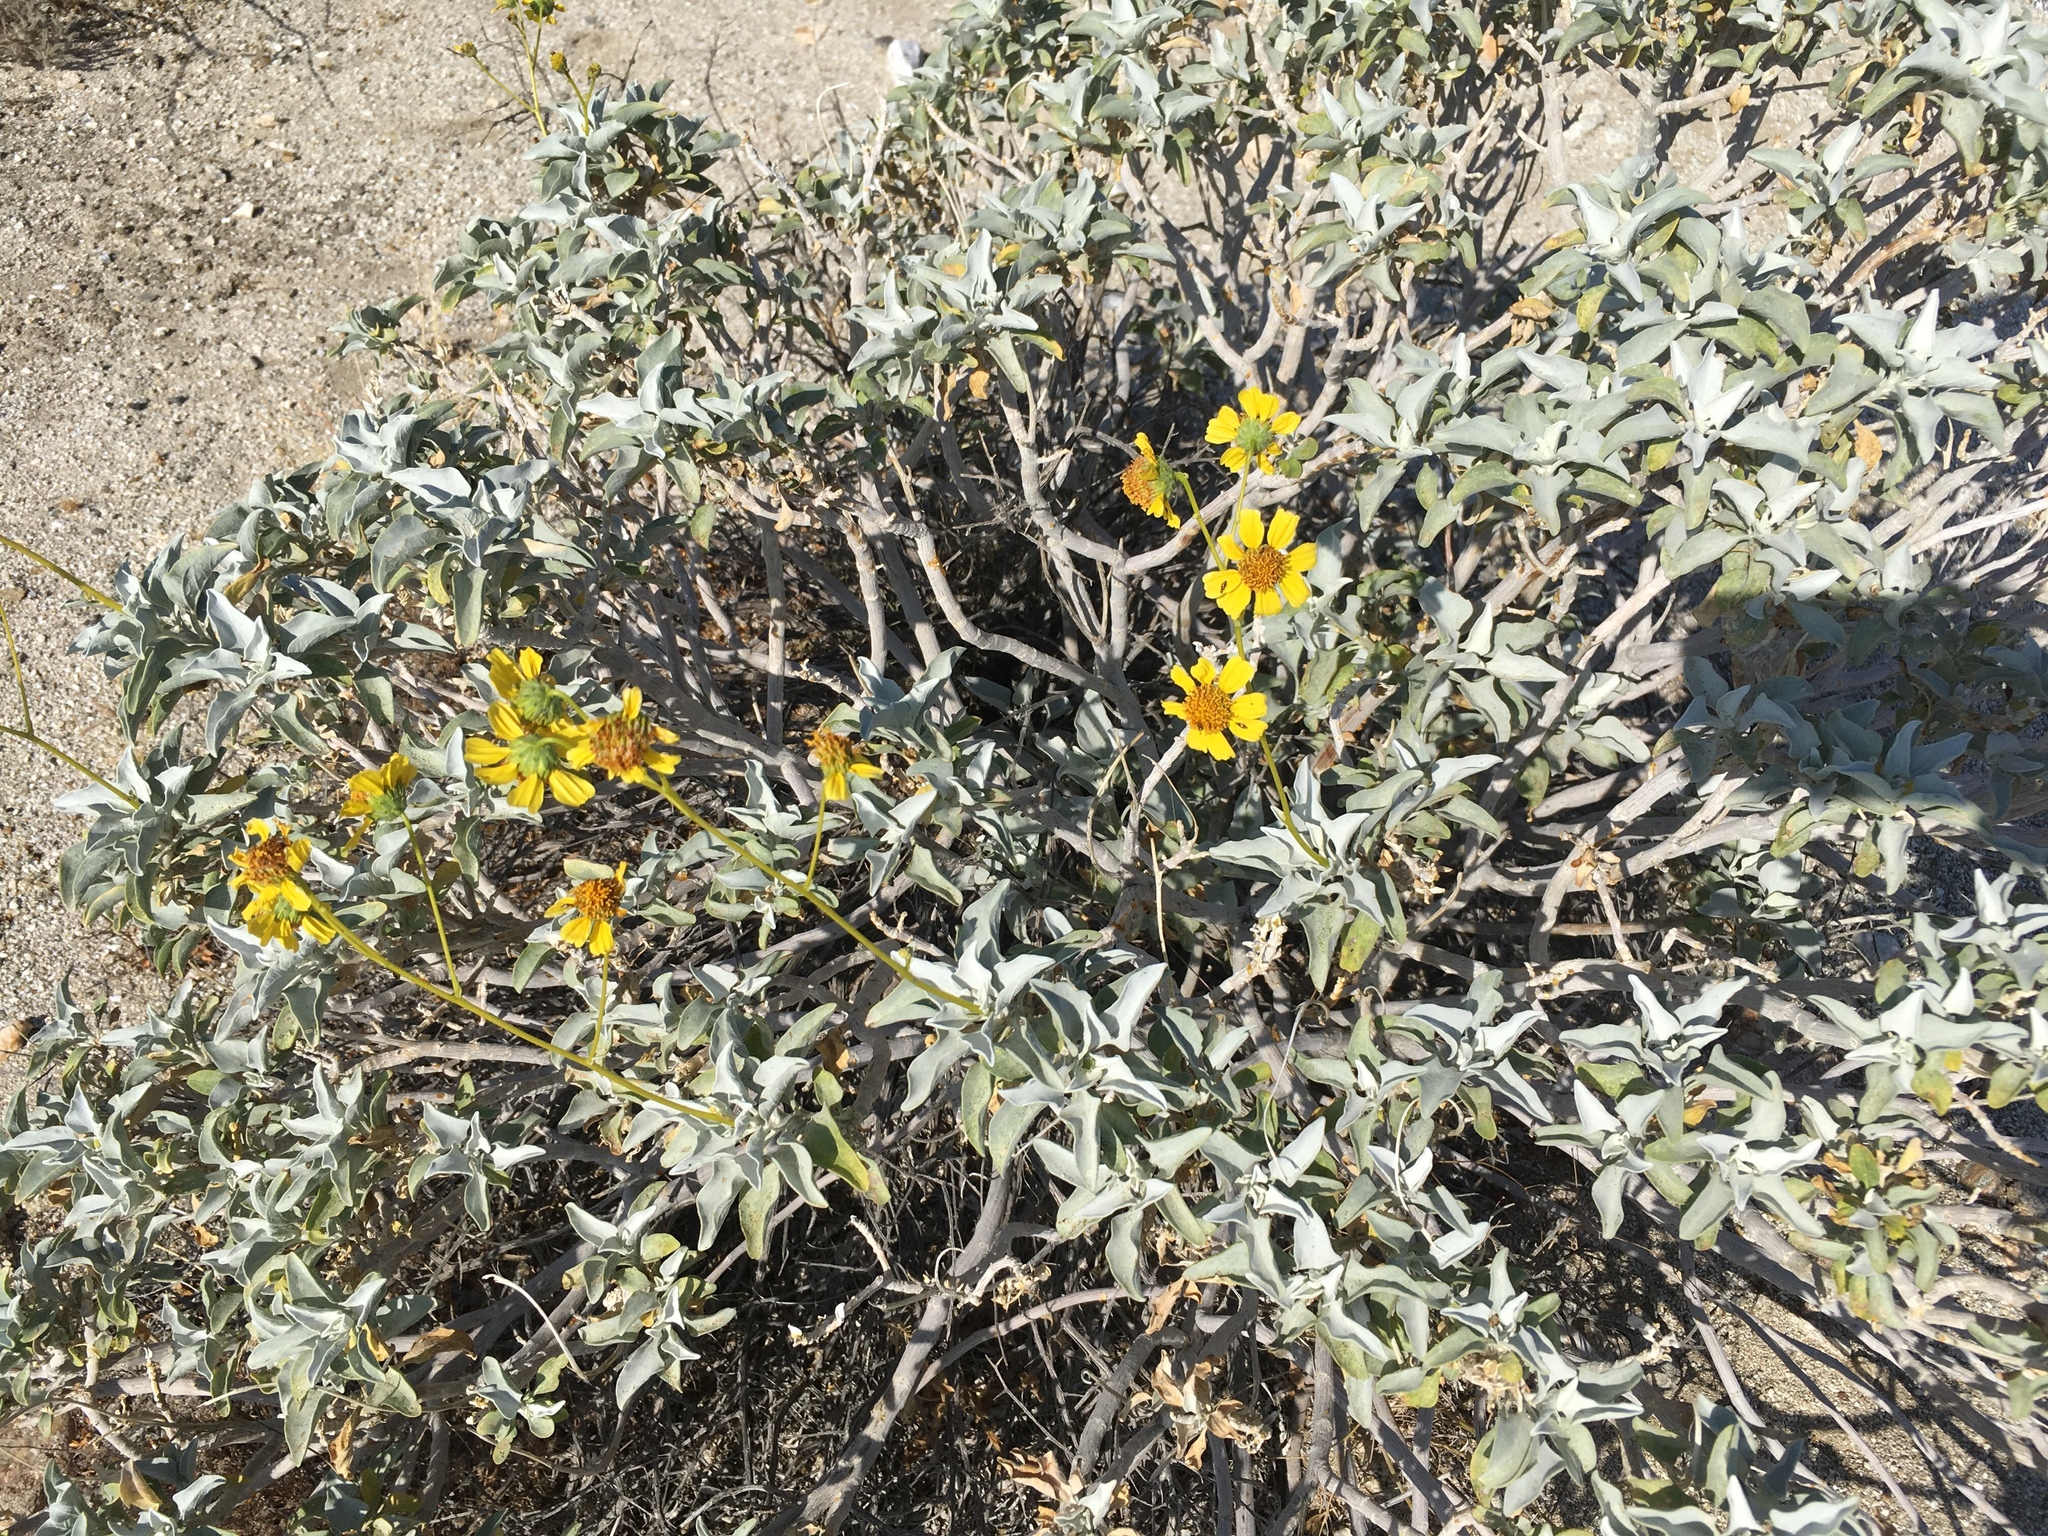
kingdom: Plantae
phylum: Tracheophyta
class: Magnoliopsida
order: Asterales
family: Asteraceae
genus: Encelia
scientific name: Encelia farinosa
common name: Brittlebush
